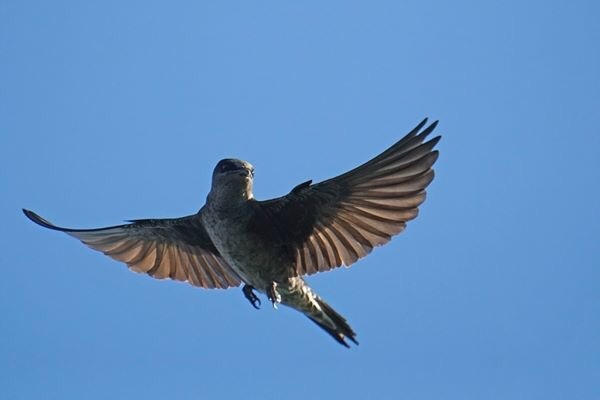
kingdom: Animalia
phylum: Chordata
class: Aves
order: Passeriformes
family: Hirundinidae
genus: Progne
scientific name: Progne subis
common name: Purple martin
